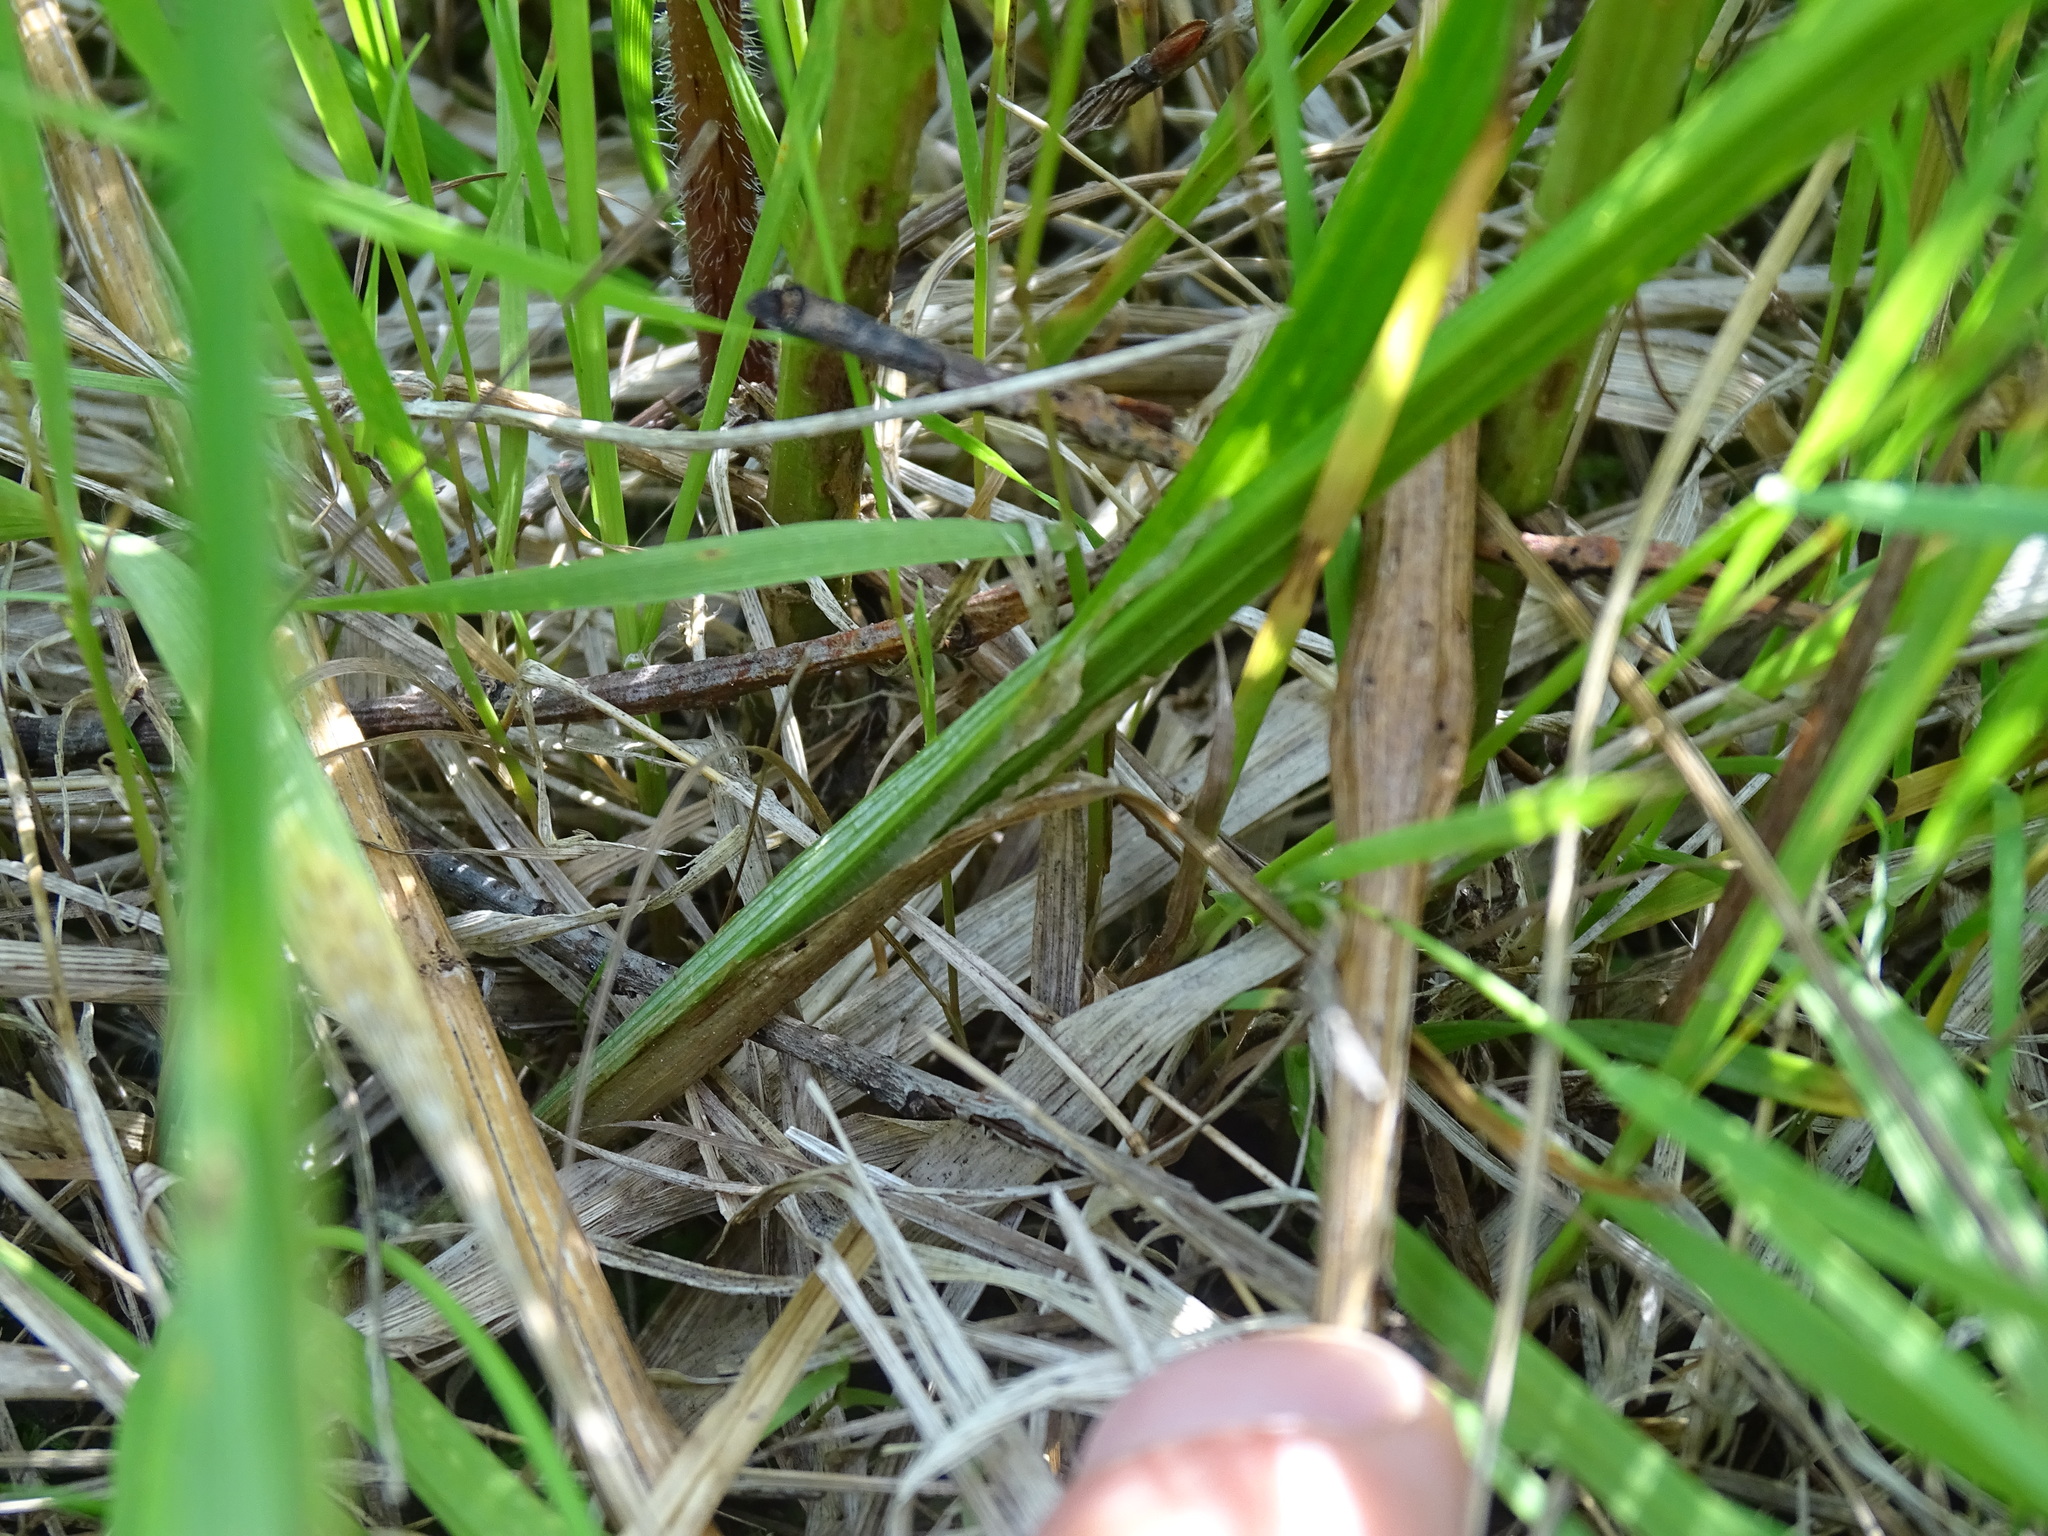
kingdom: Plantae
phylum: Tracheophyta
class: Liliopsida
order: Poales
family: Cyperaceae
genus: Carex
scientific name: Carex stipata
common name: Awl-fruited sedge
